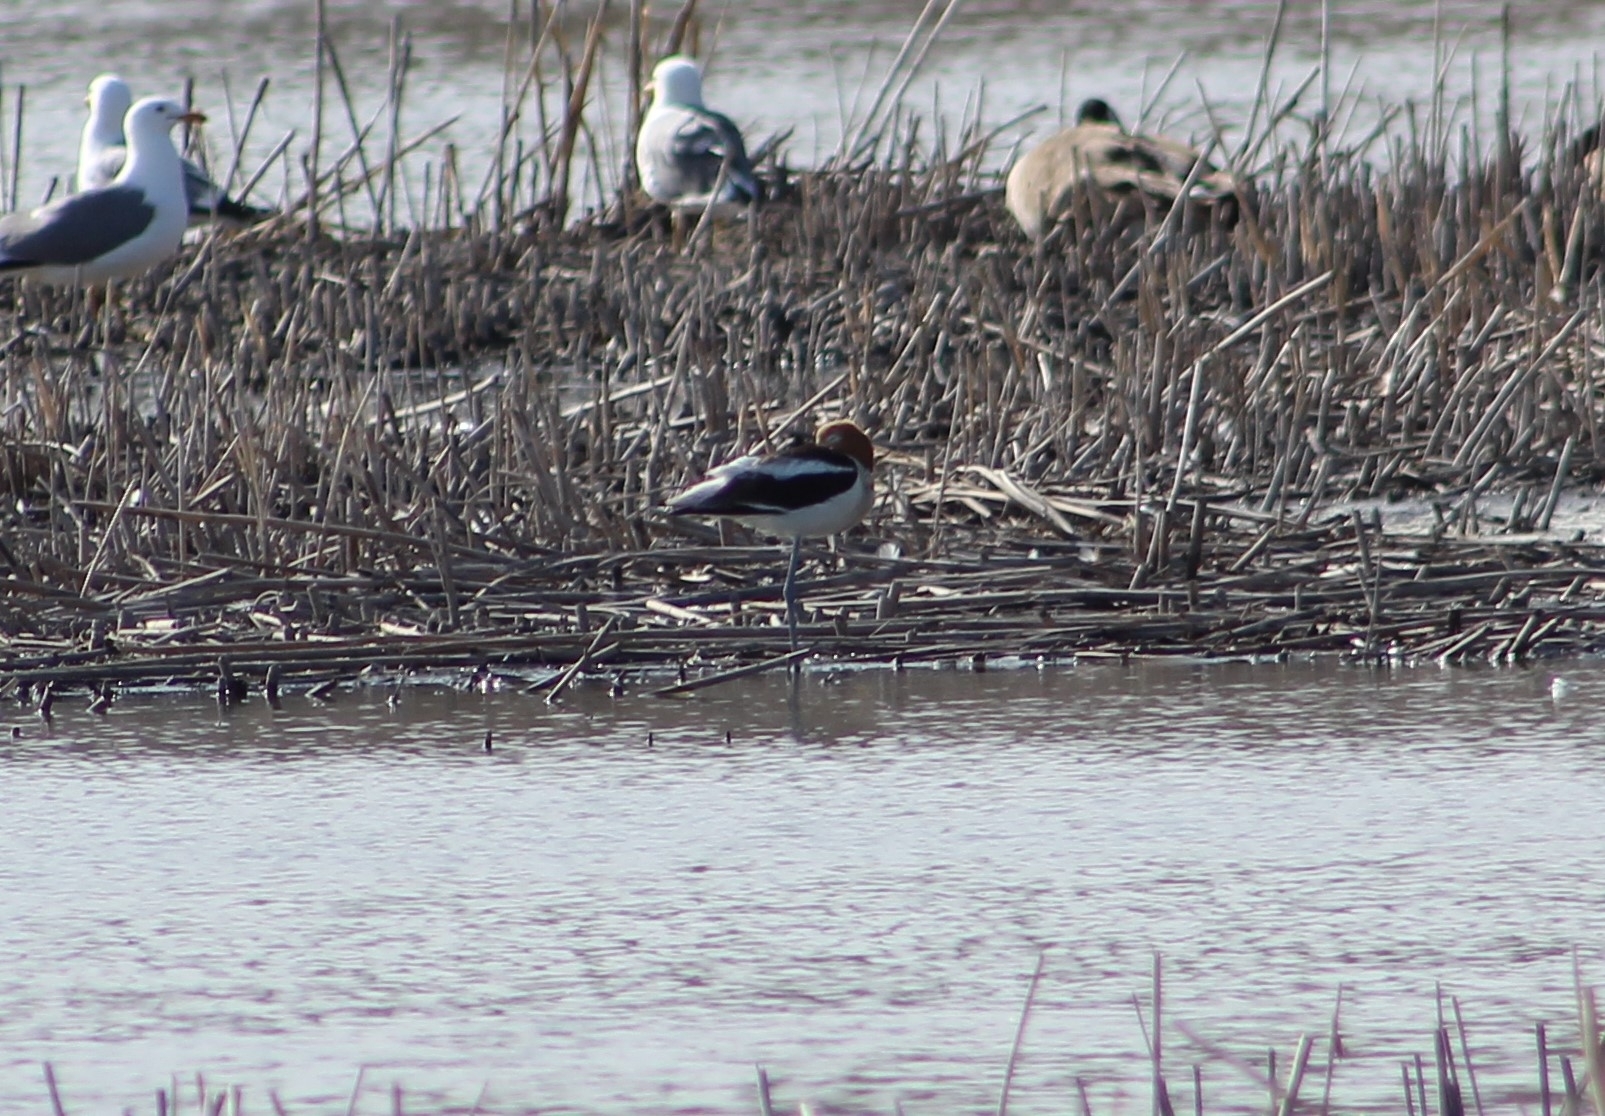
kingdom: Animalia
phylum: Chordata
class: Aves
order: Charadriiformes
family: Recurvirostridae
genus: Recurvirostra
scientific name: Recurvirostra americana
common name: American avocet
